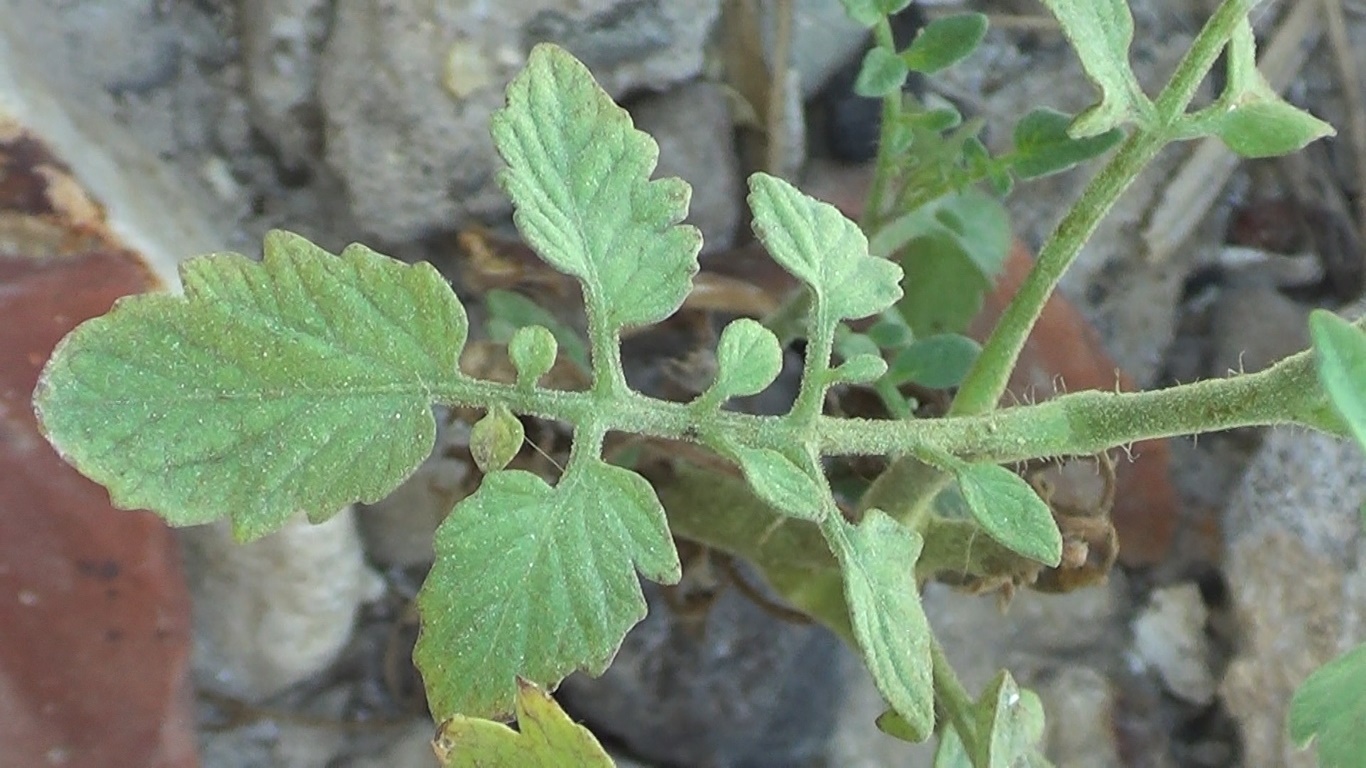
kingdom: Plantae
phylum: Tracheophyta
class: Magnoliopsida
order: Solanales
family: Solanaceae
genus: Solanum
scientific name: Solanum lycopersicum
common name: Garden tomato
